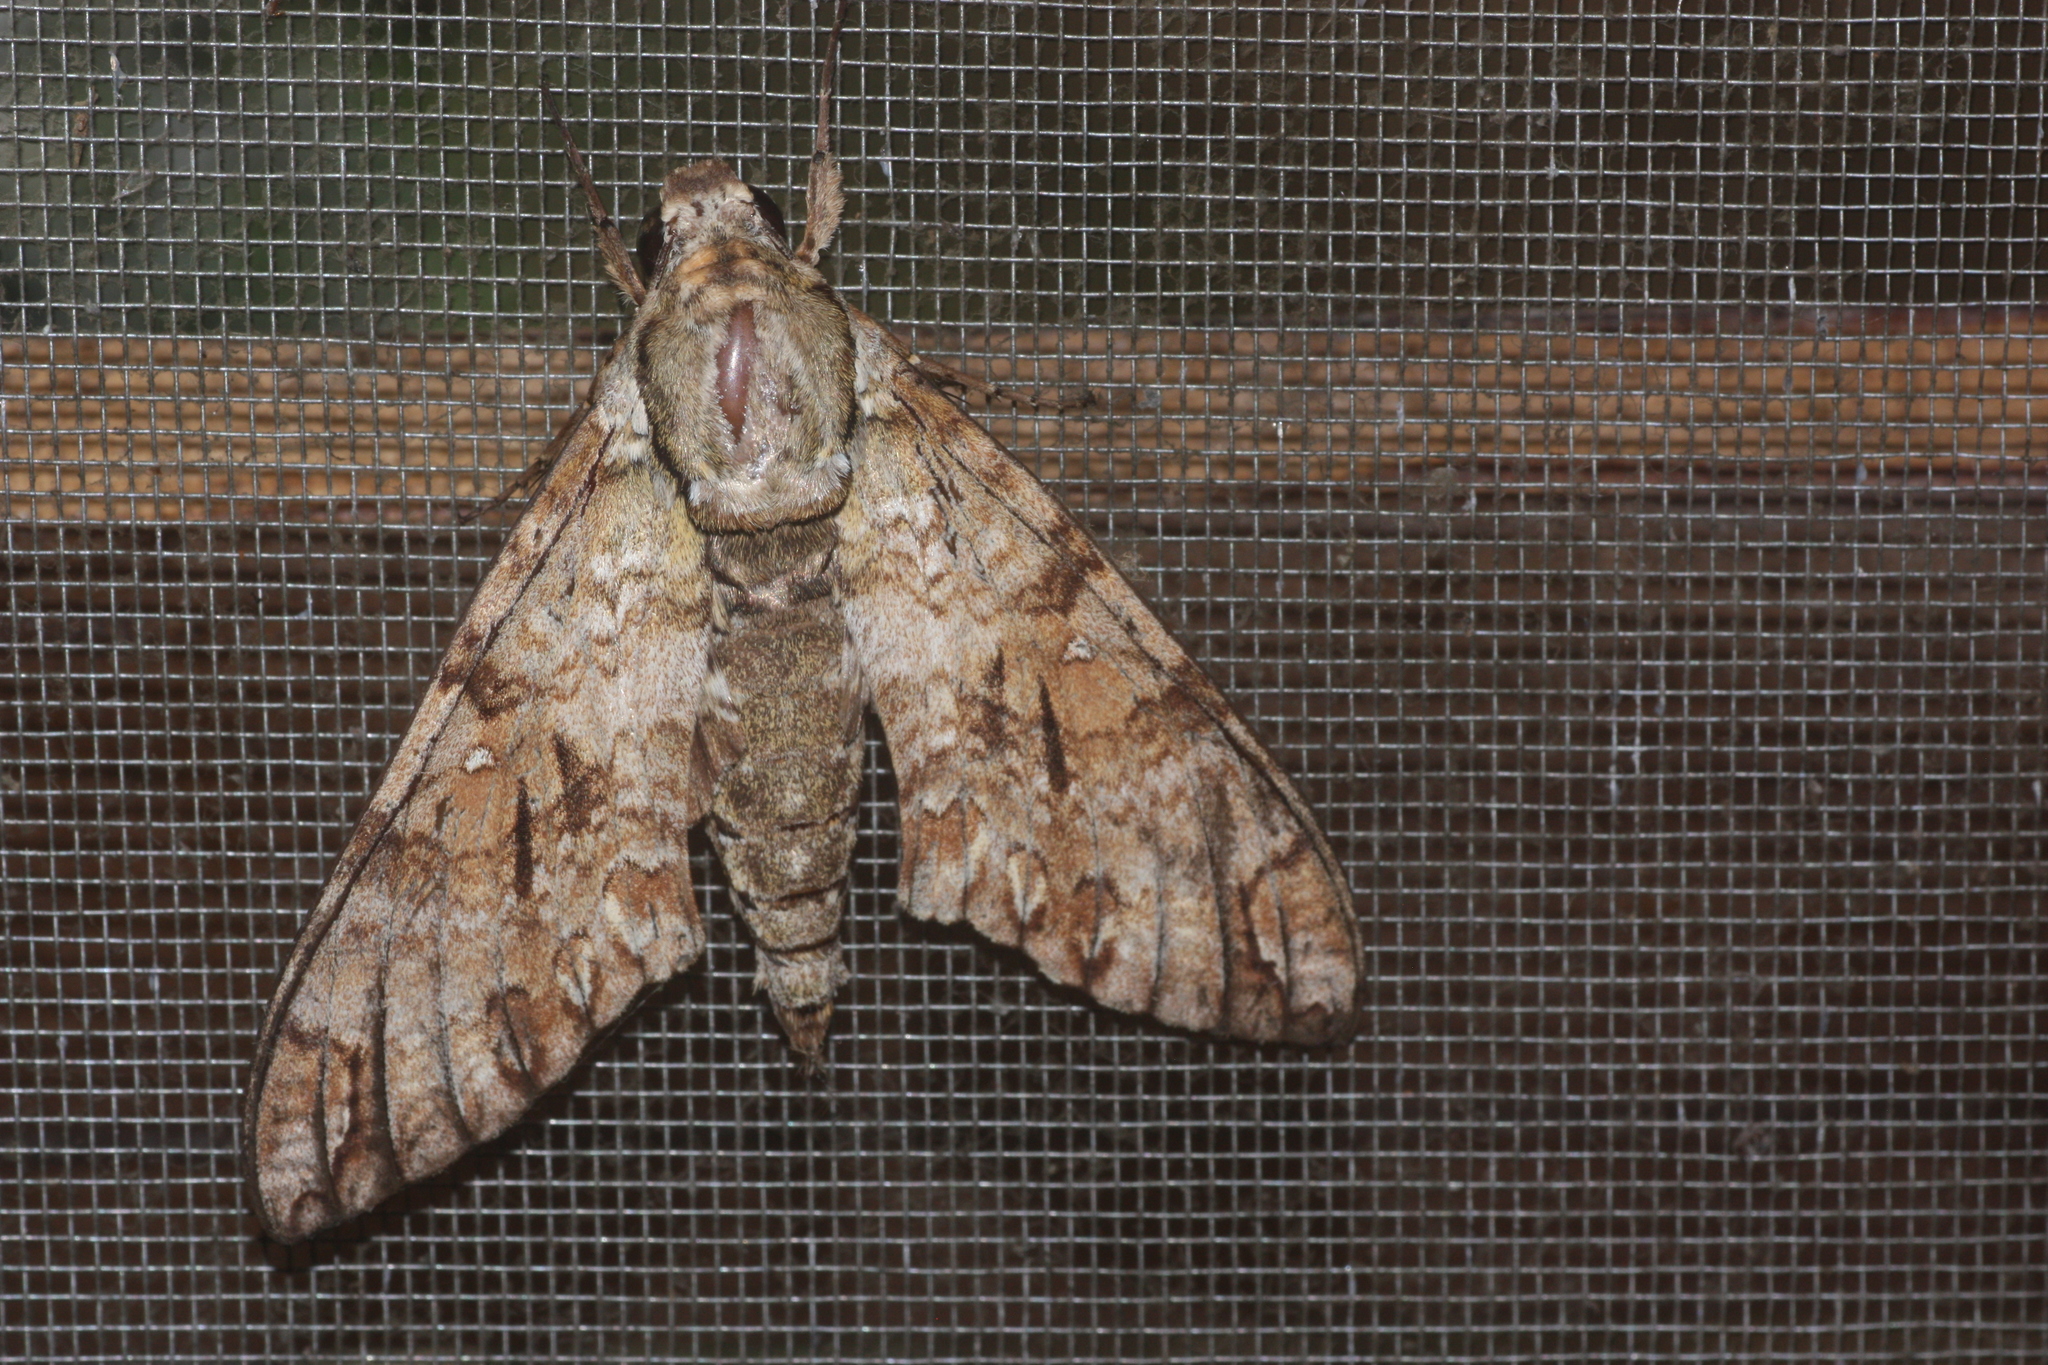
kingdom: Animalia
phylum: Arthropoda
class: Insecta
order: Lepidoptera
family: Sphingidae
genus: Manduca
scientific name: Manduca florestan
